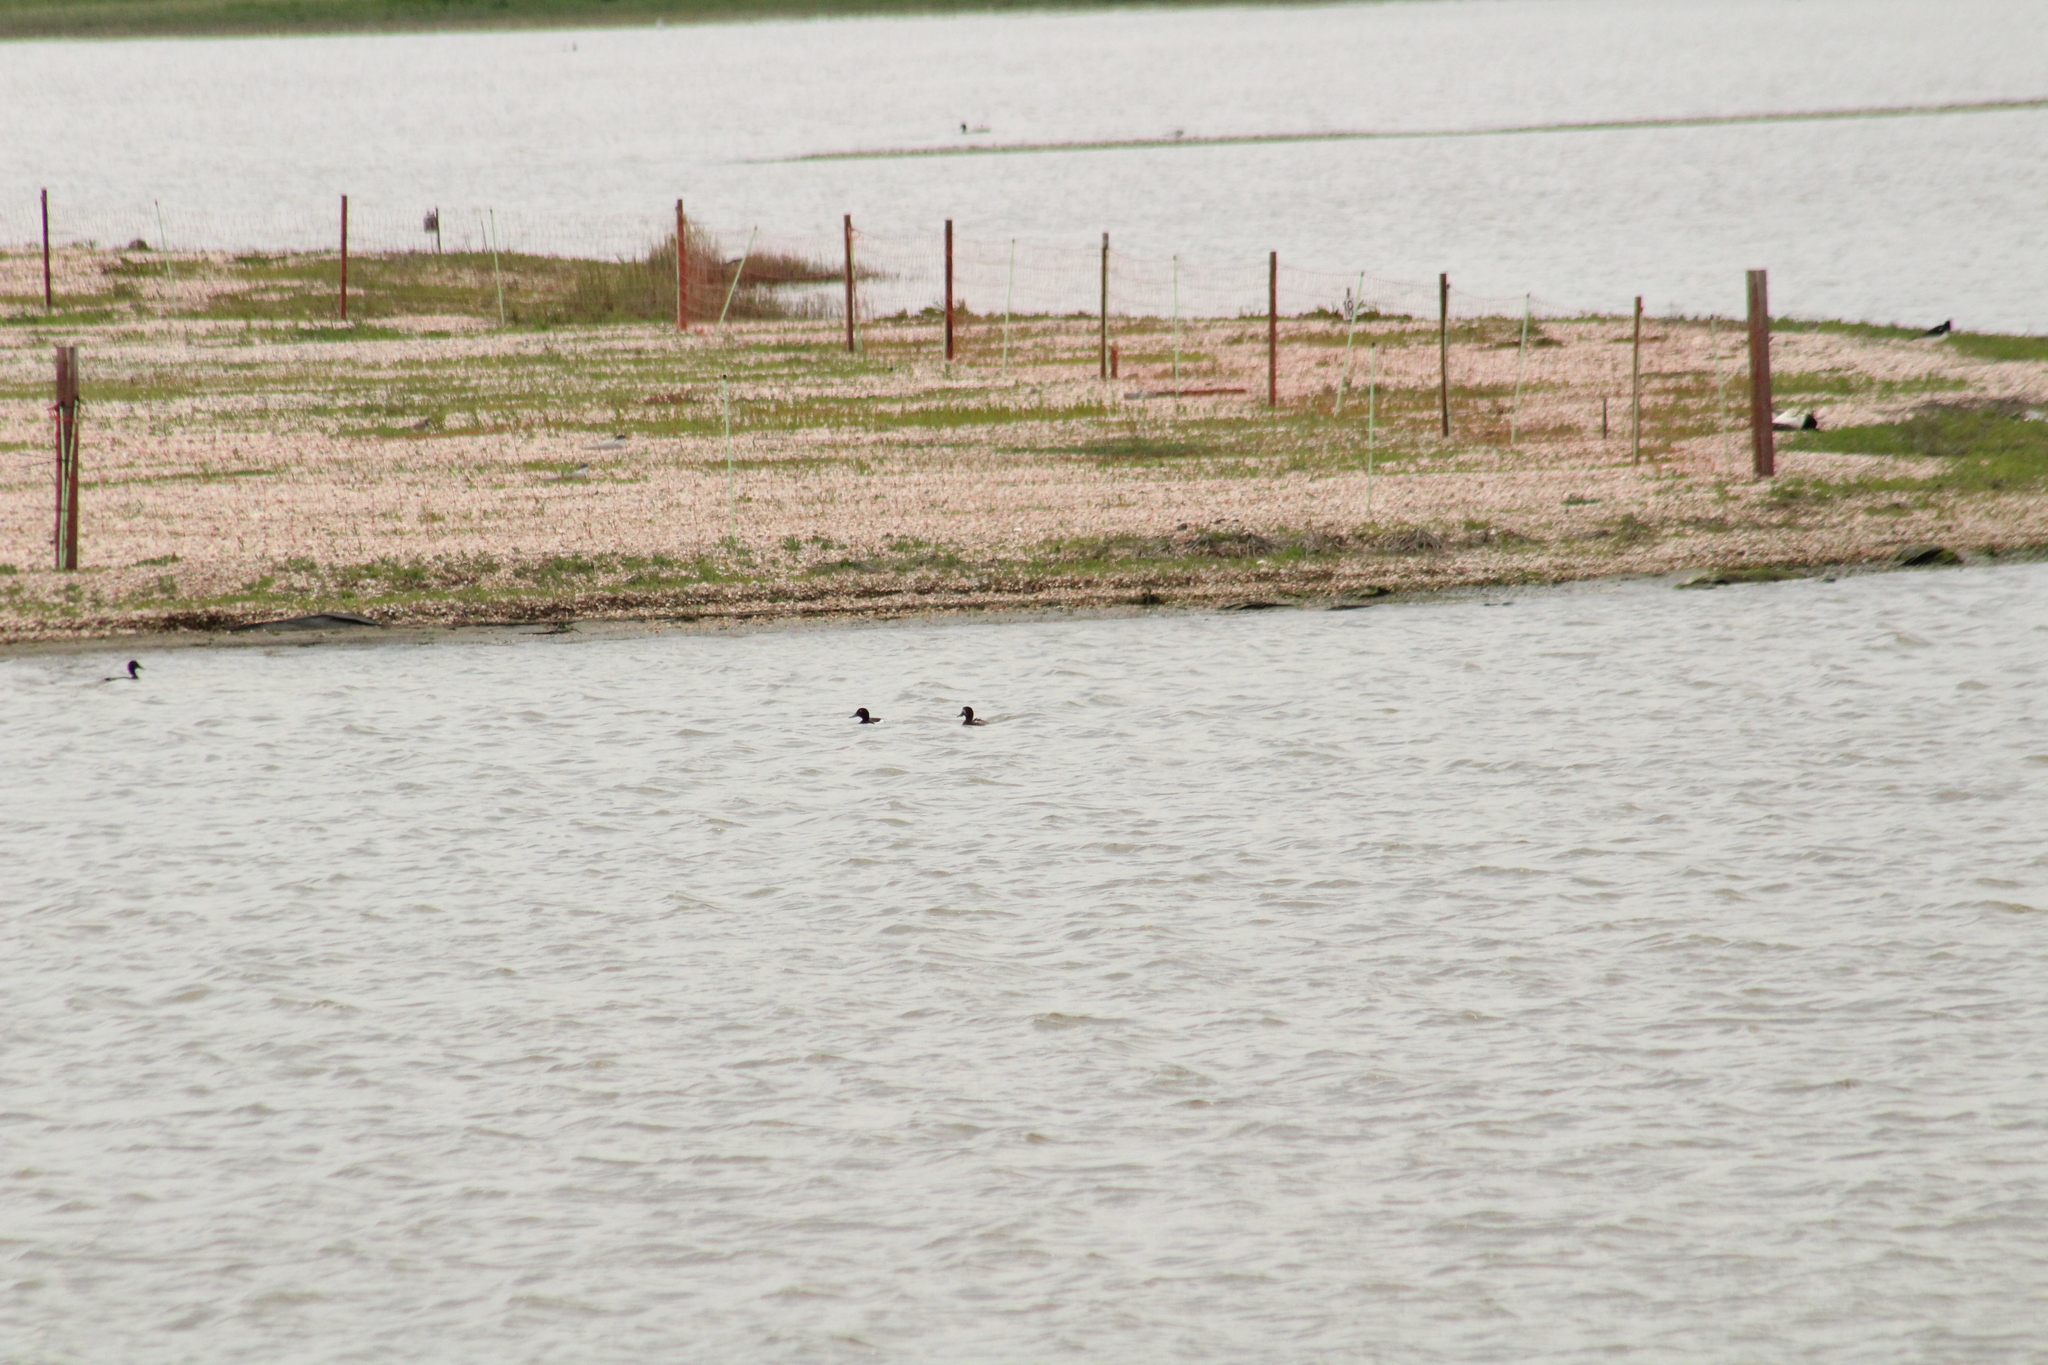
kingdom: Animalia
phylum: Chordata
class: Aves
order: Anseriformes
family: Anatidae
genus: Aythya
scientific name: Aythya fuligula
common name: Tufted duck
